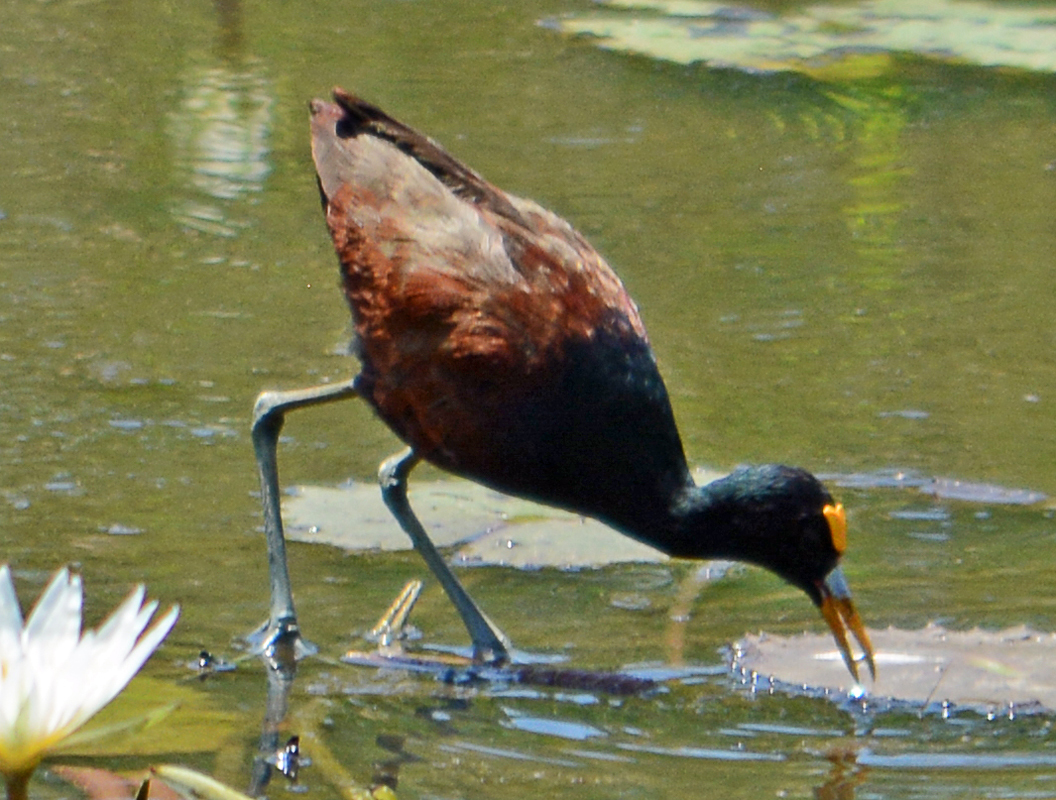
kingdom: Animalia
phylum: Chordata
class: Aves
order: Charadriiformes
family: Jacanidae
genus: Jacana
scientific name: Jacana spinosa
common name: Northern jacana
